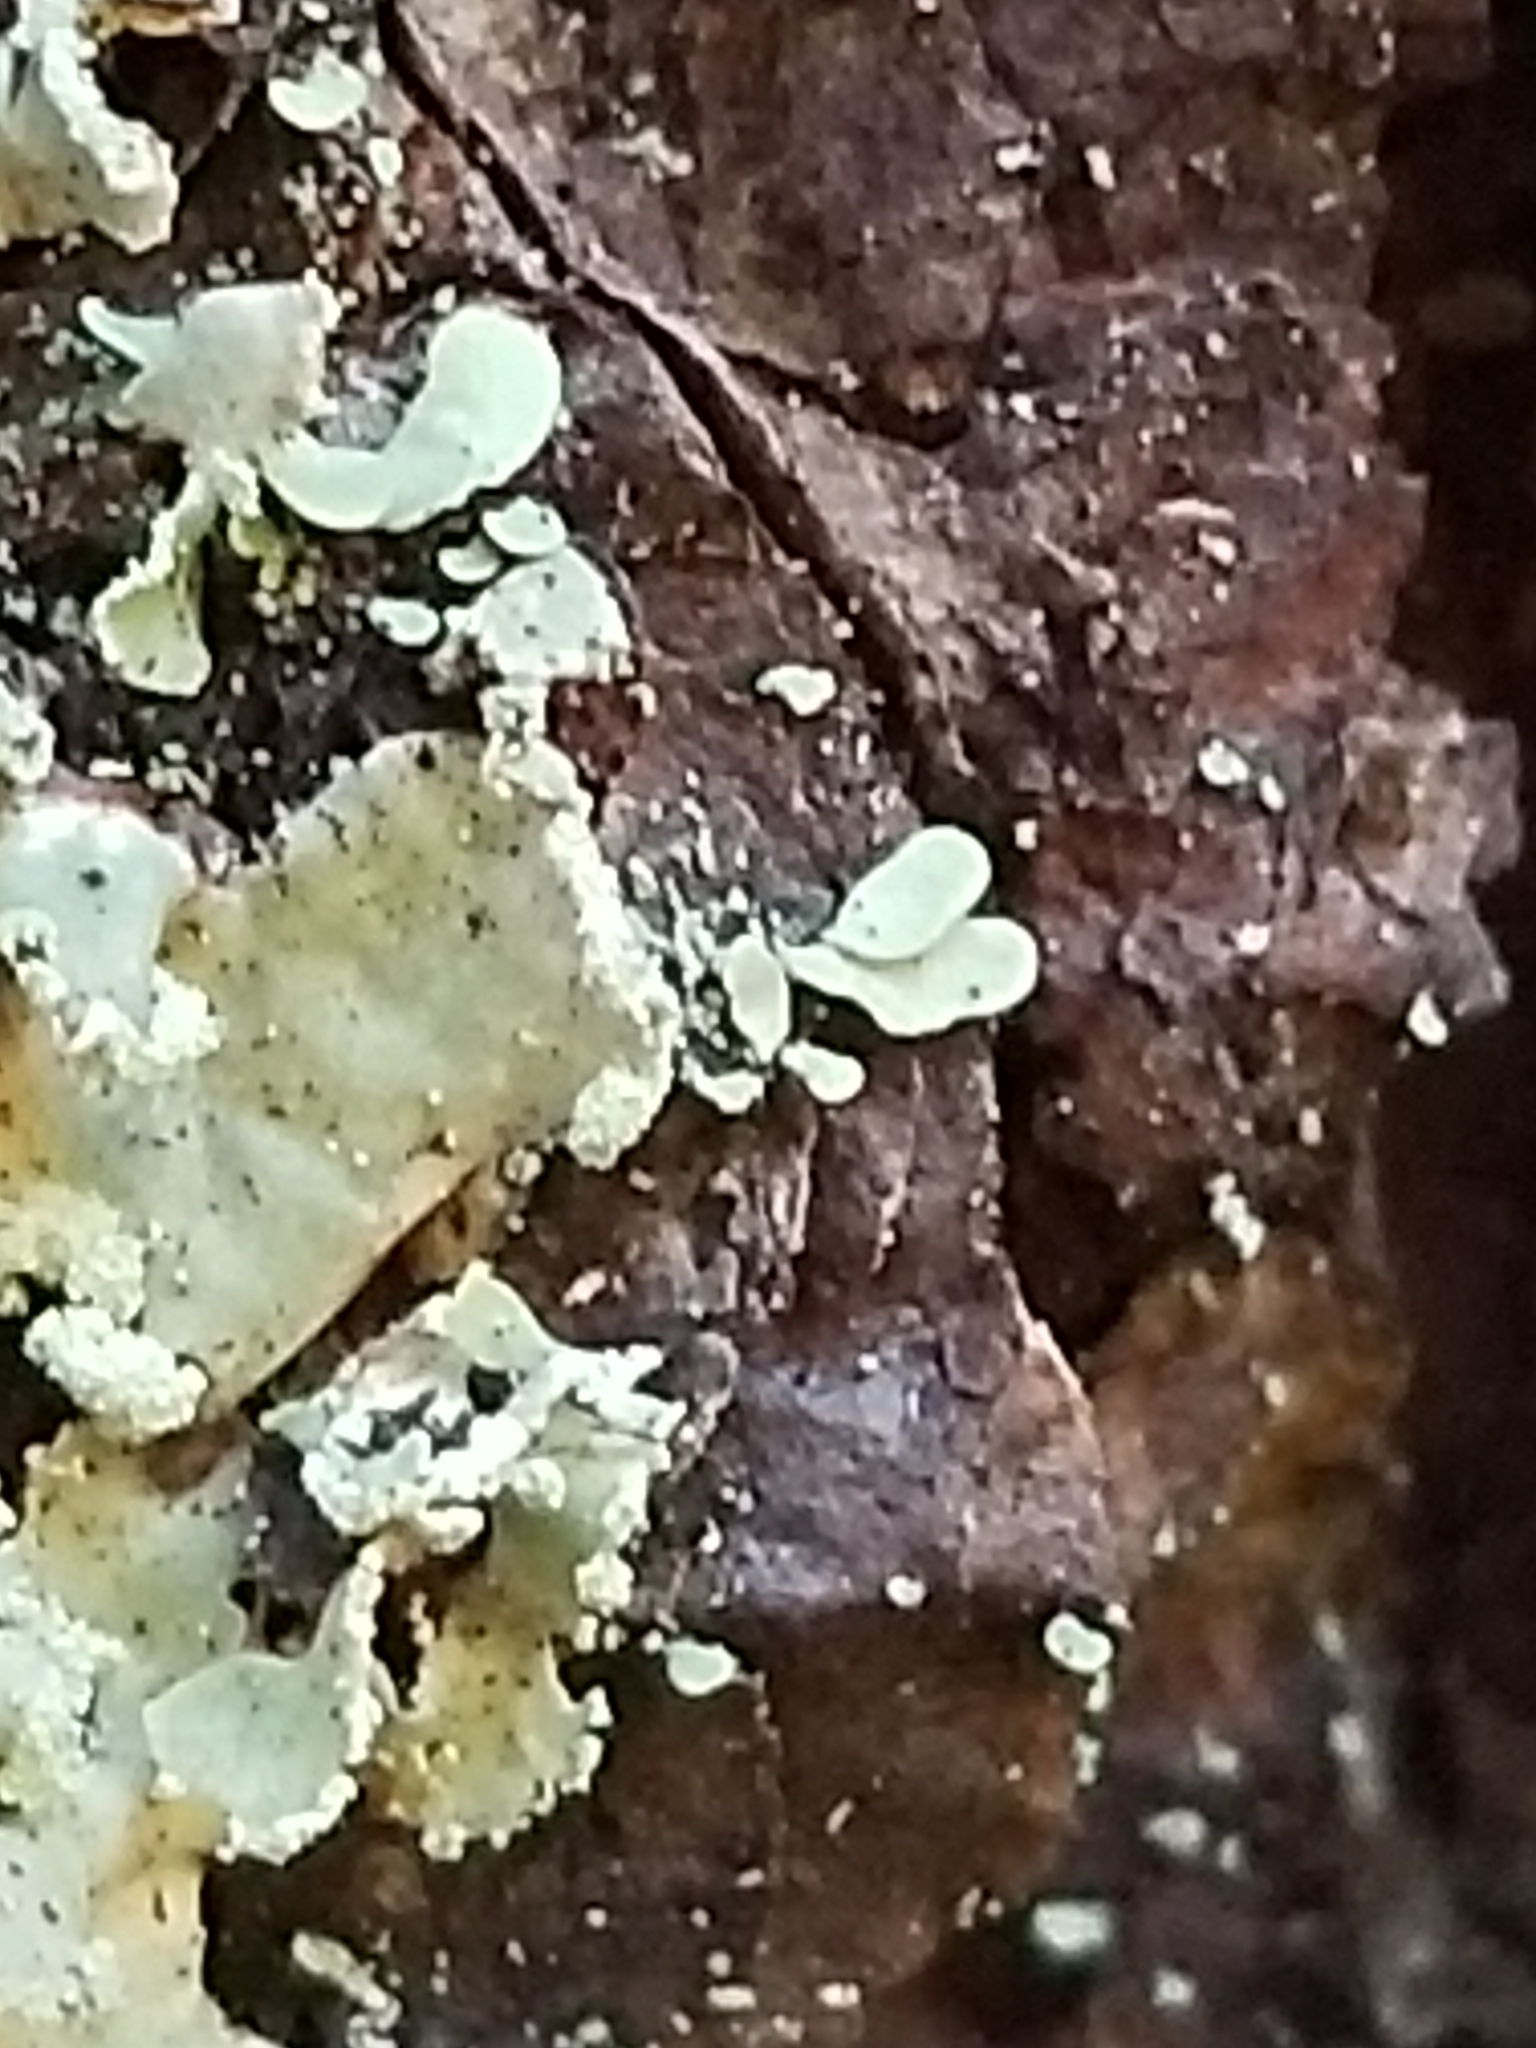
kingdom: Fungi
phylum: Ascomycota
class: Lecanoromycetes
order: Lecanorales
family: Parmeliaceae
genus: Usnocetraria
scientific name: Usnocetraria oakesiana
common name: Yellow ribbon lichen
